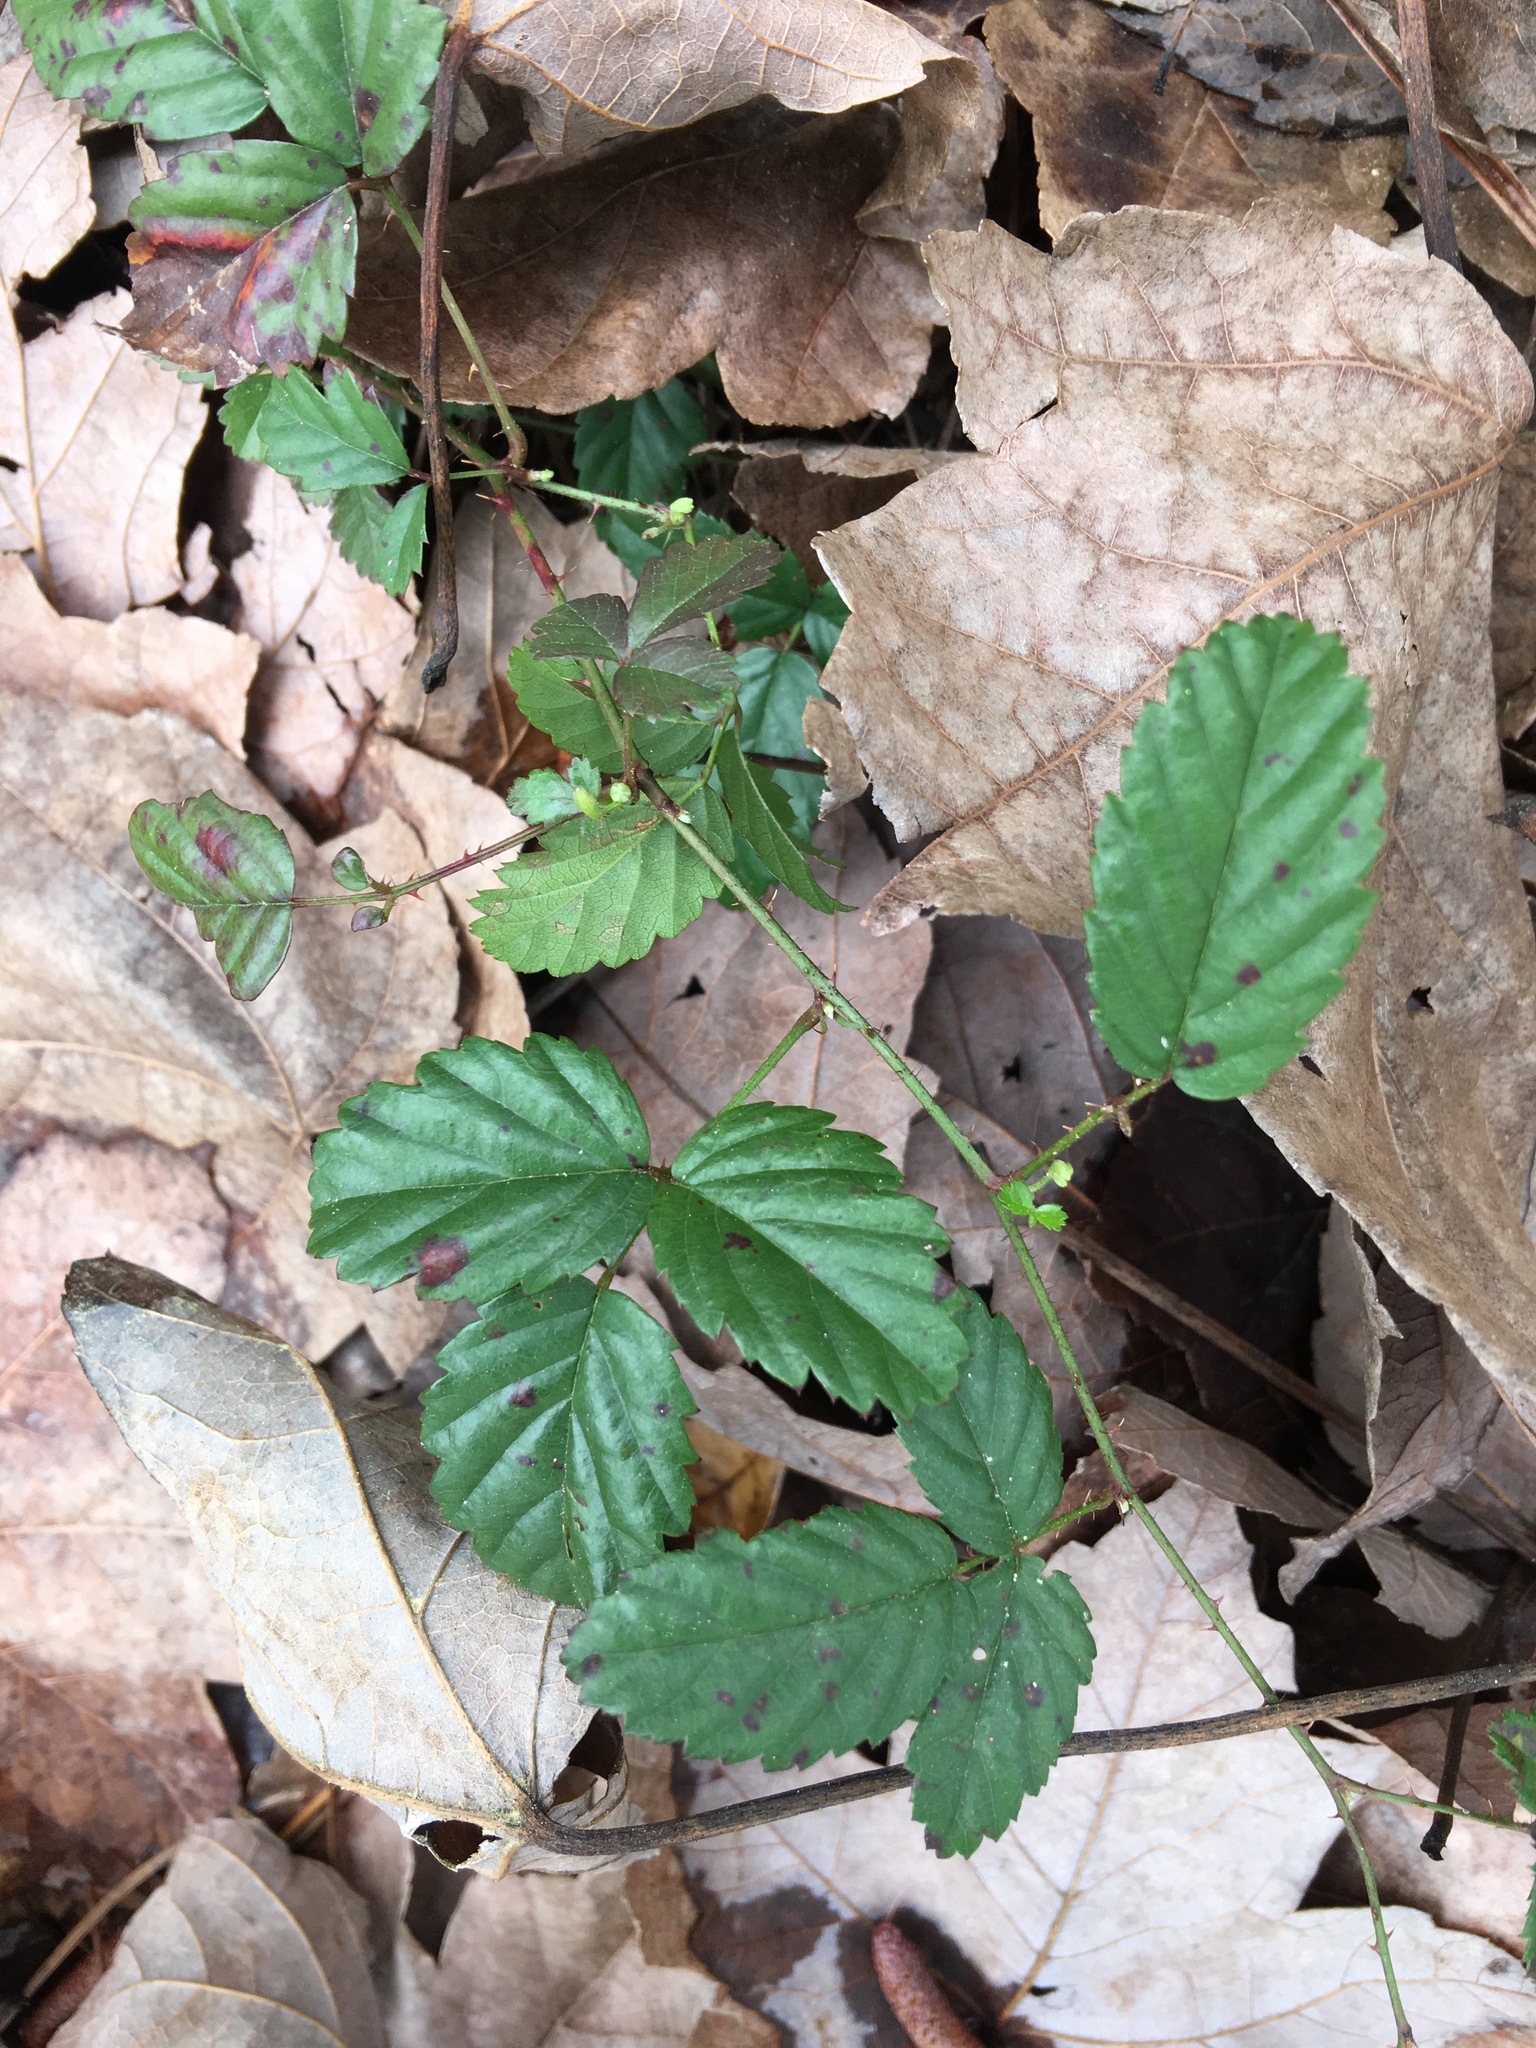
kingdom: Plantae
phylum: Tracheophyta
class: Magnoliopsida
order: Rosales
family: Rosaceae
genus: Rubus
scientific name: Rubus trivialis
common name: Southern dewberry
